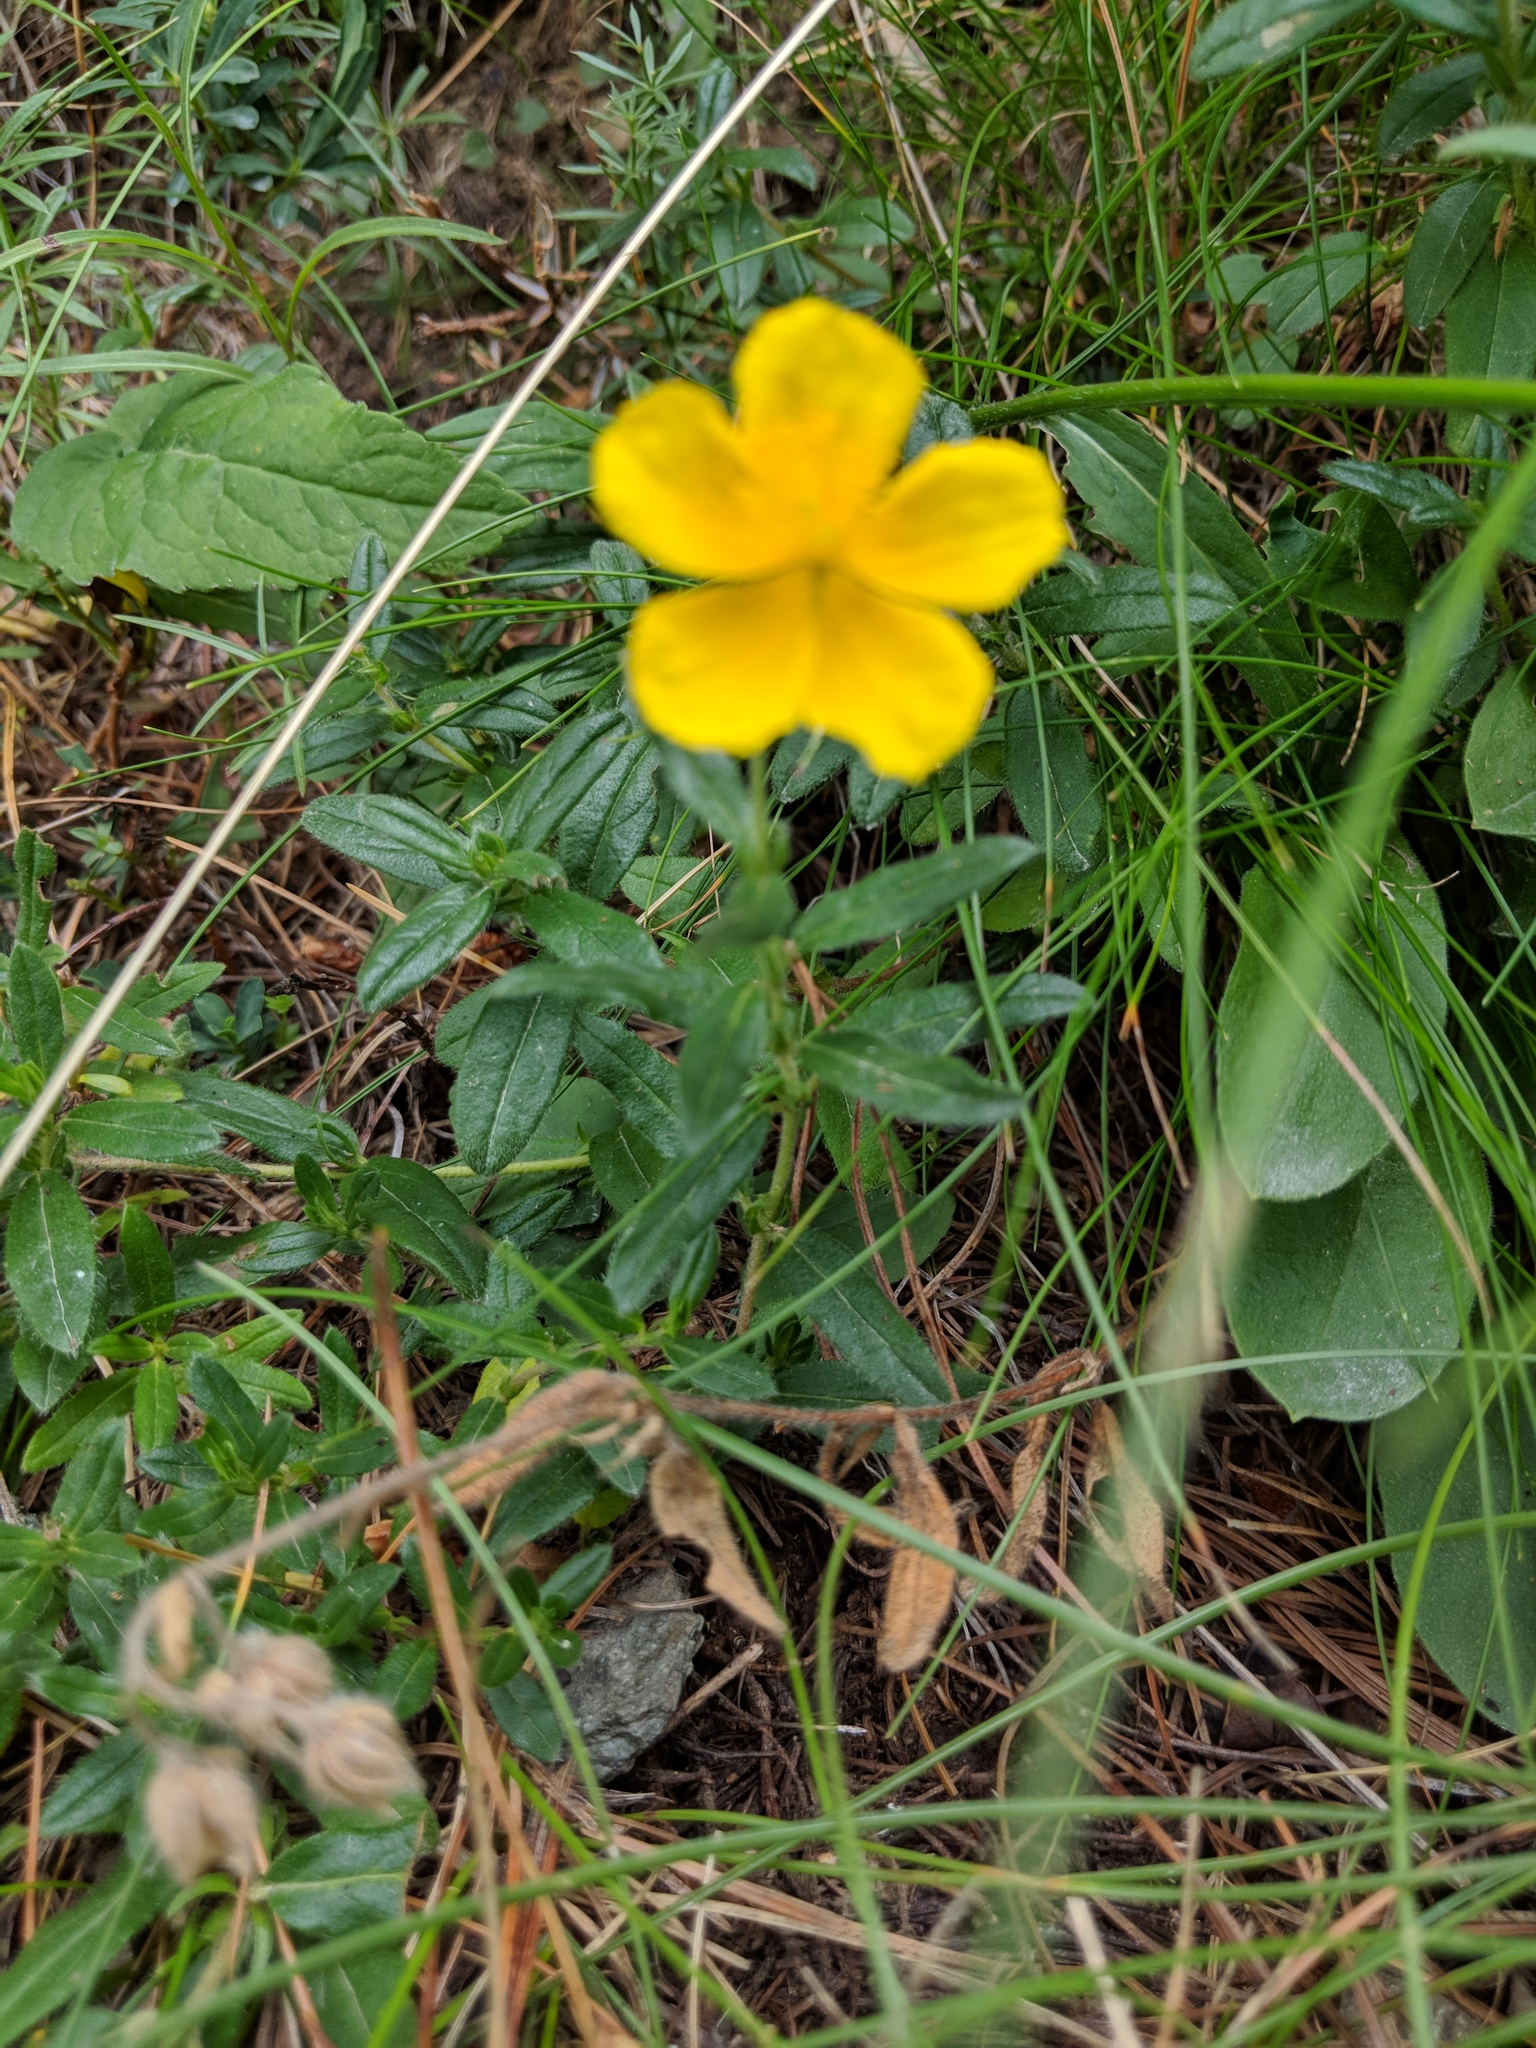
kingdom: Plantae
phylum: Tracheophyta
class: Magnoliopsida
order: Malvales
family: Cistaceae
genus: Helianthemum
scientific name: Helianthemum nummularium
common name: Common rock-rose
